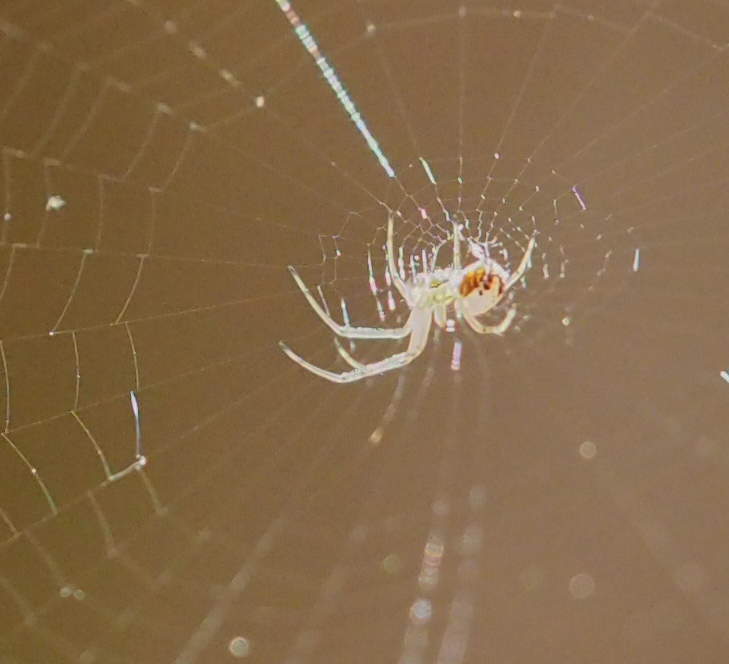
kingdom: Animalia
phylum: Arthropoda
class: Arachnida
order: Araneae
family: Tetragnathidae
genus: Leucauge
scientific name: Leucauge venusta
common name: Longjawed orb weavers
